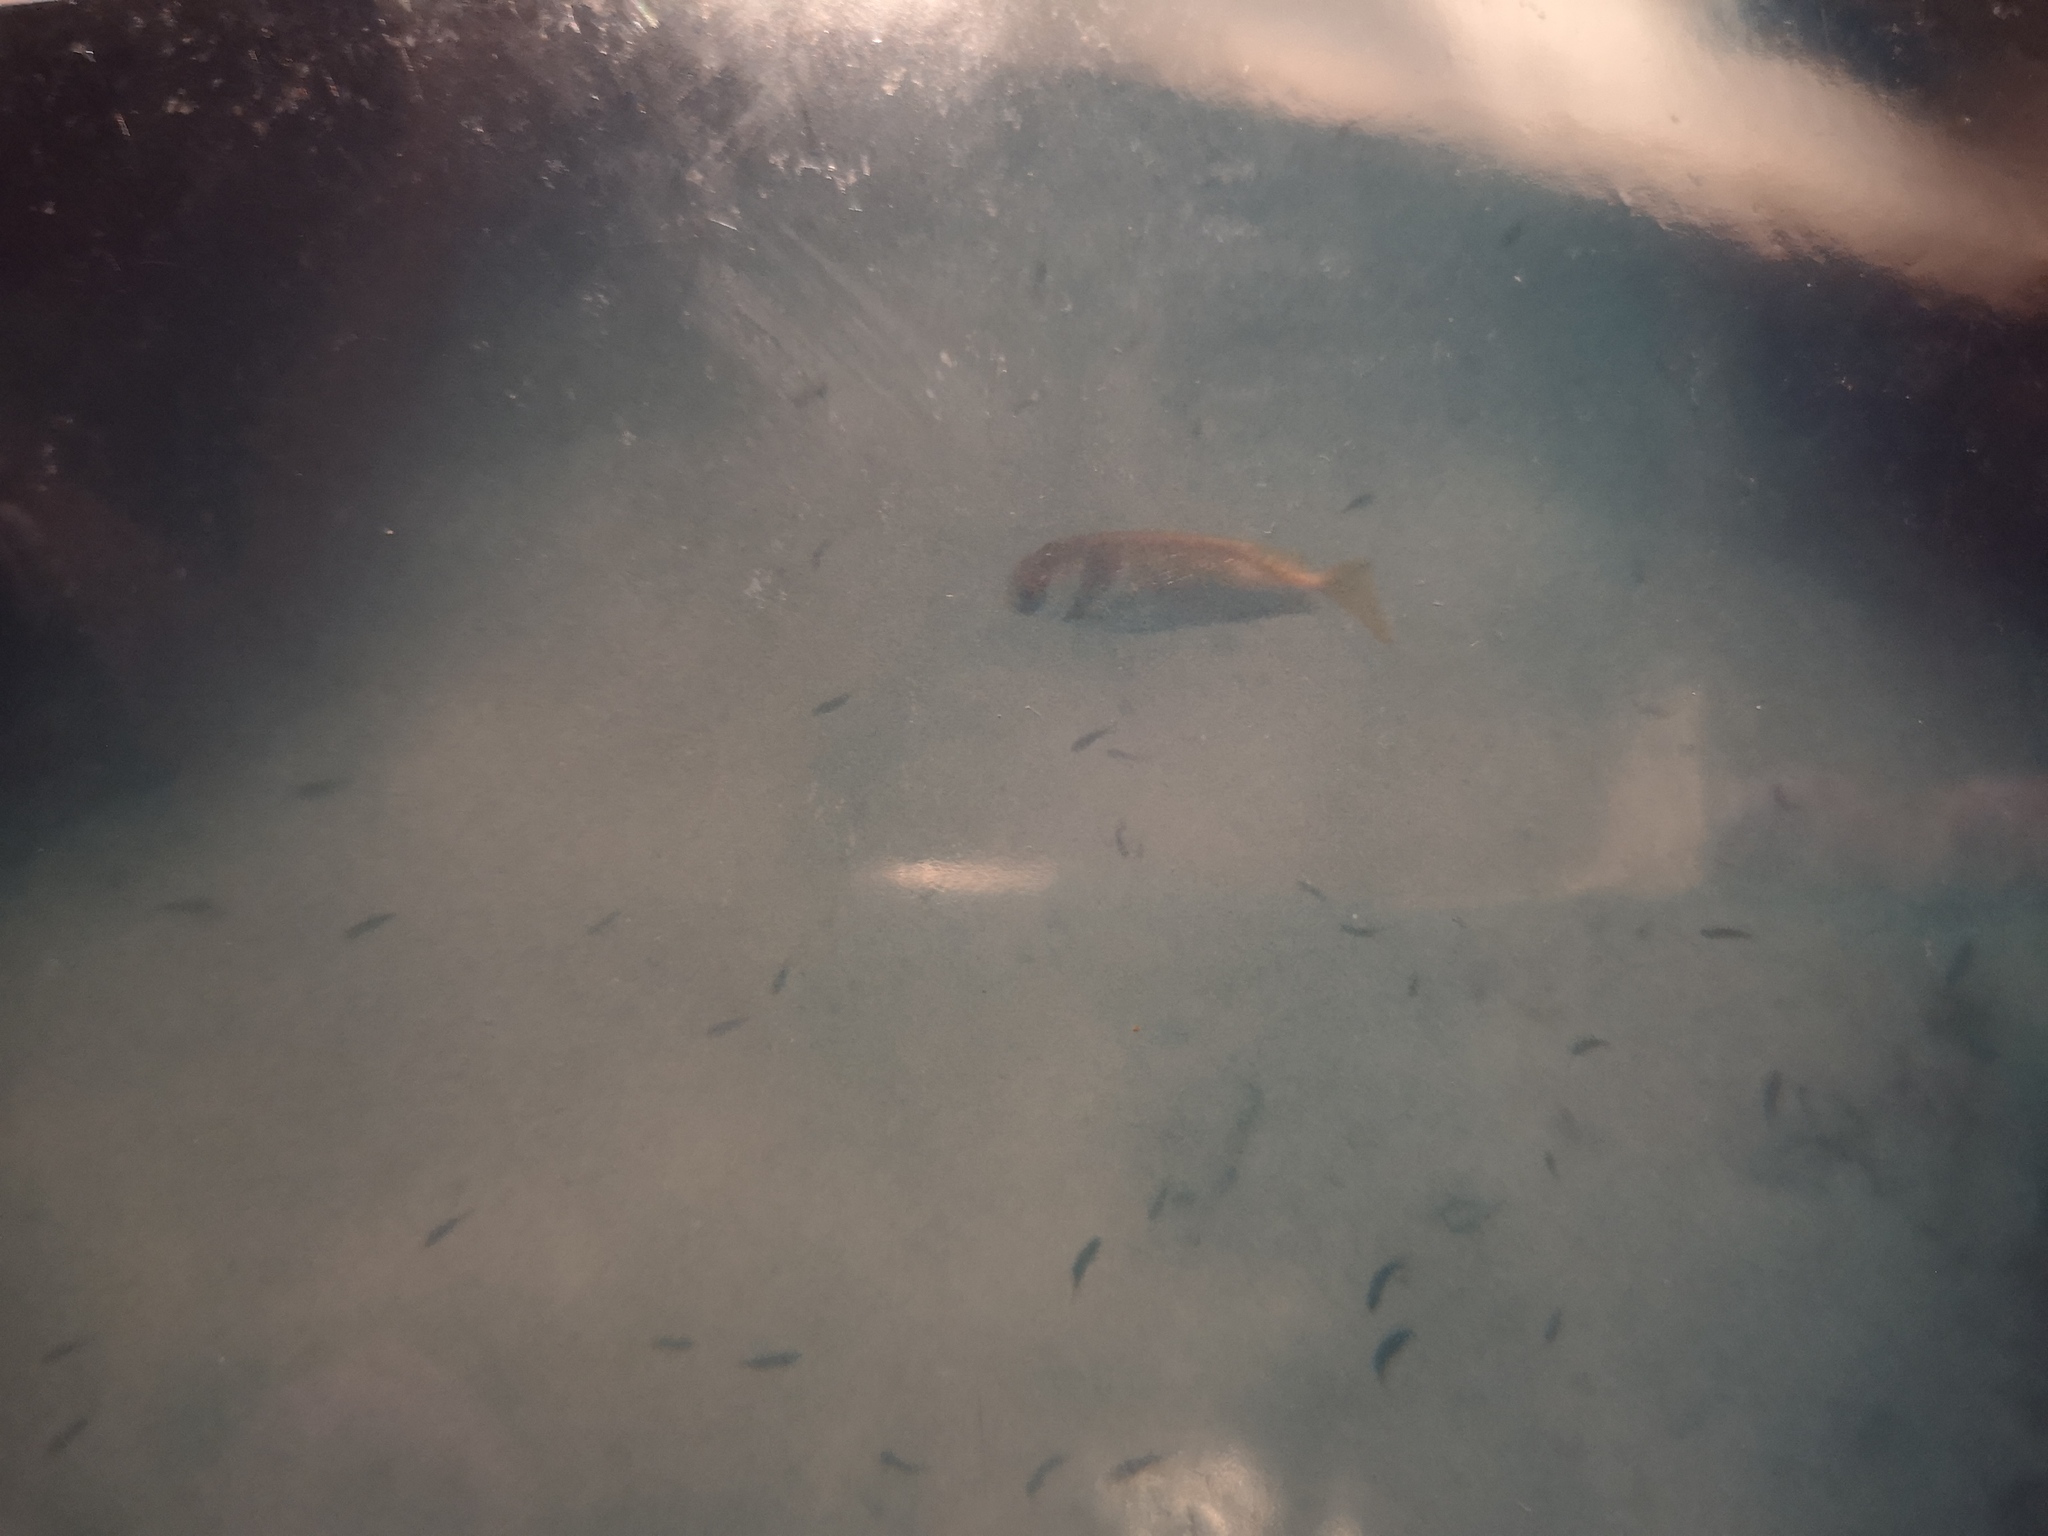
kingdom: Animalia
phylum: Chordata
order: Perciformes
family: Siganidae
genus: Siganus
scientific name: Siganus virgatus
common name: Barhead spinefoot
